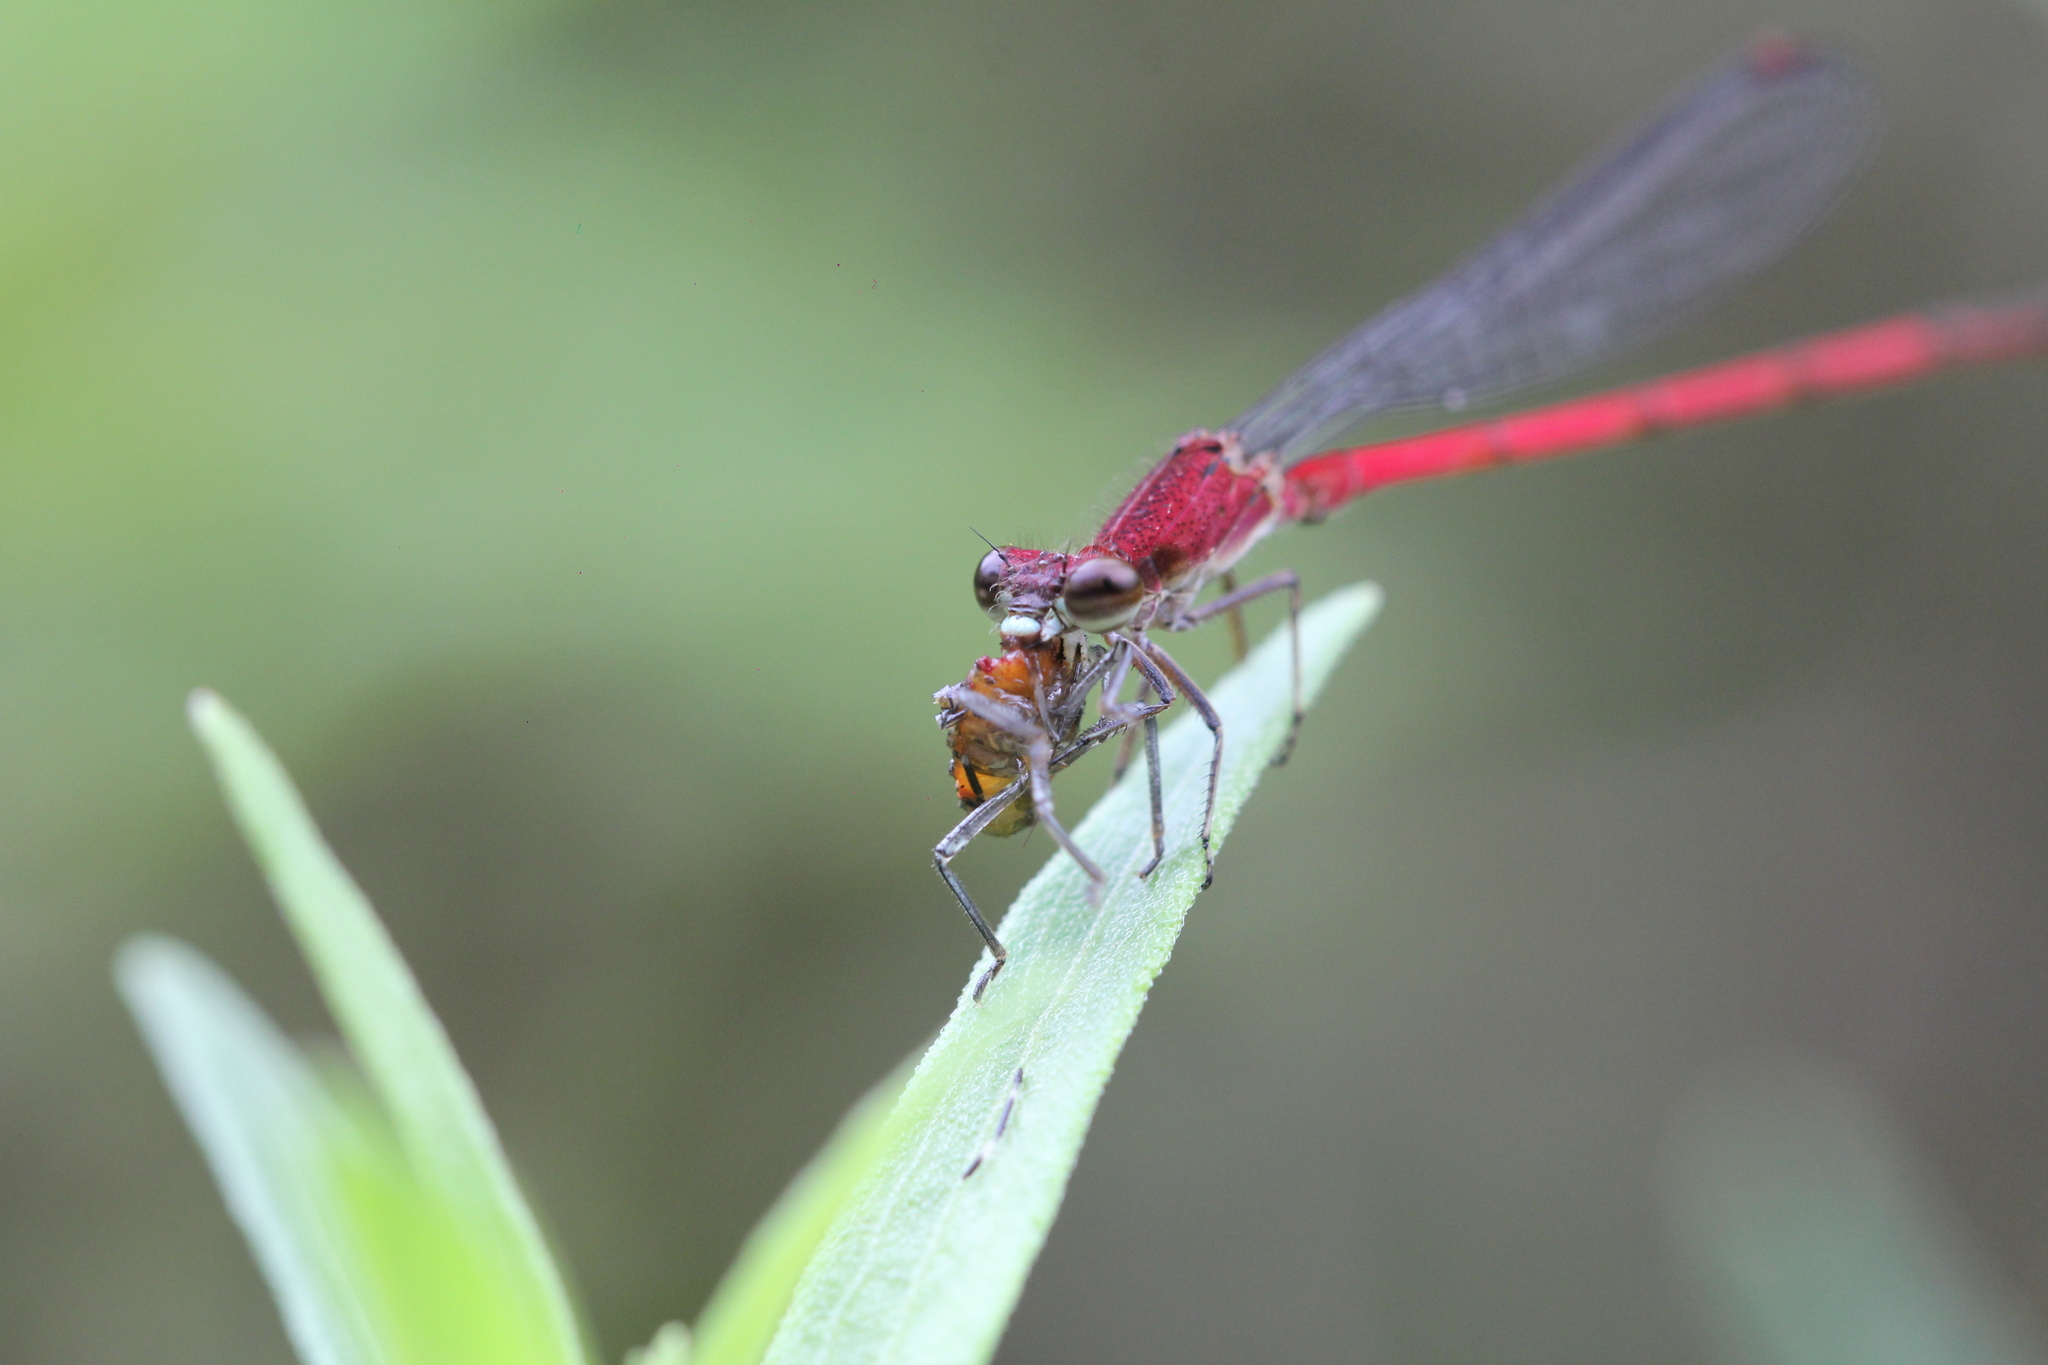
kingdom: Animalia
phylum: Arthropoda
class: Insecta
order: Odonata
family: Coenagrionidae
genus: Oxyagrion
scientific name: Oxyagrion terminale
